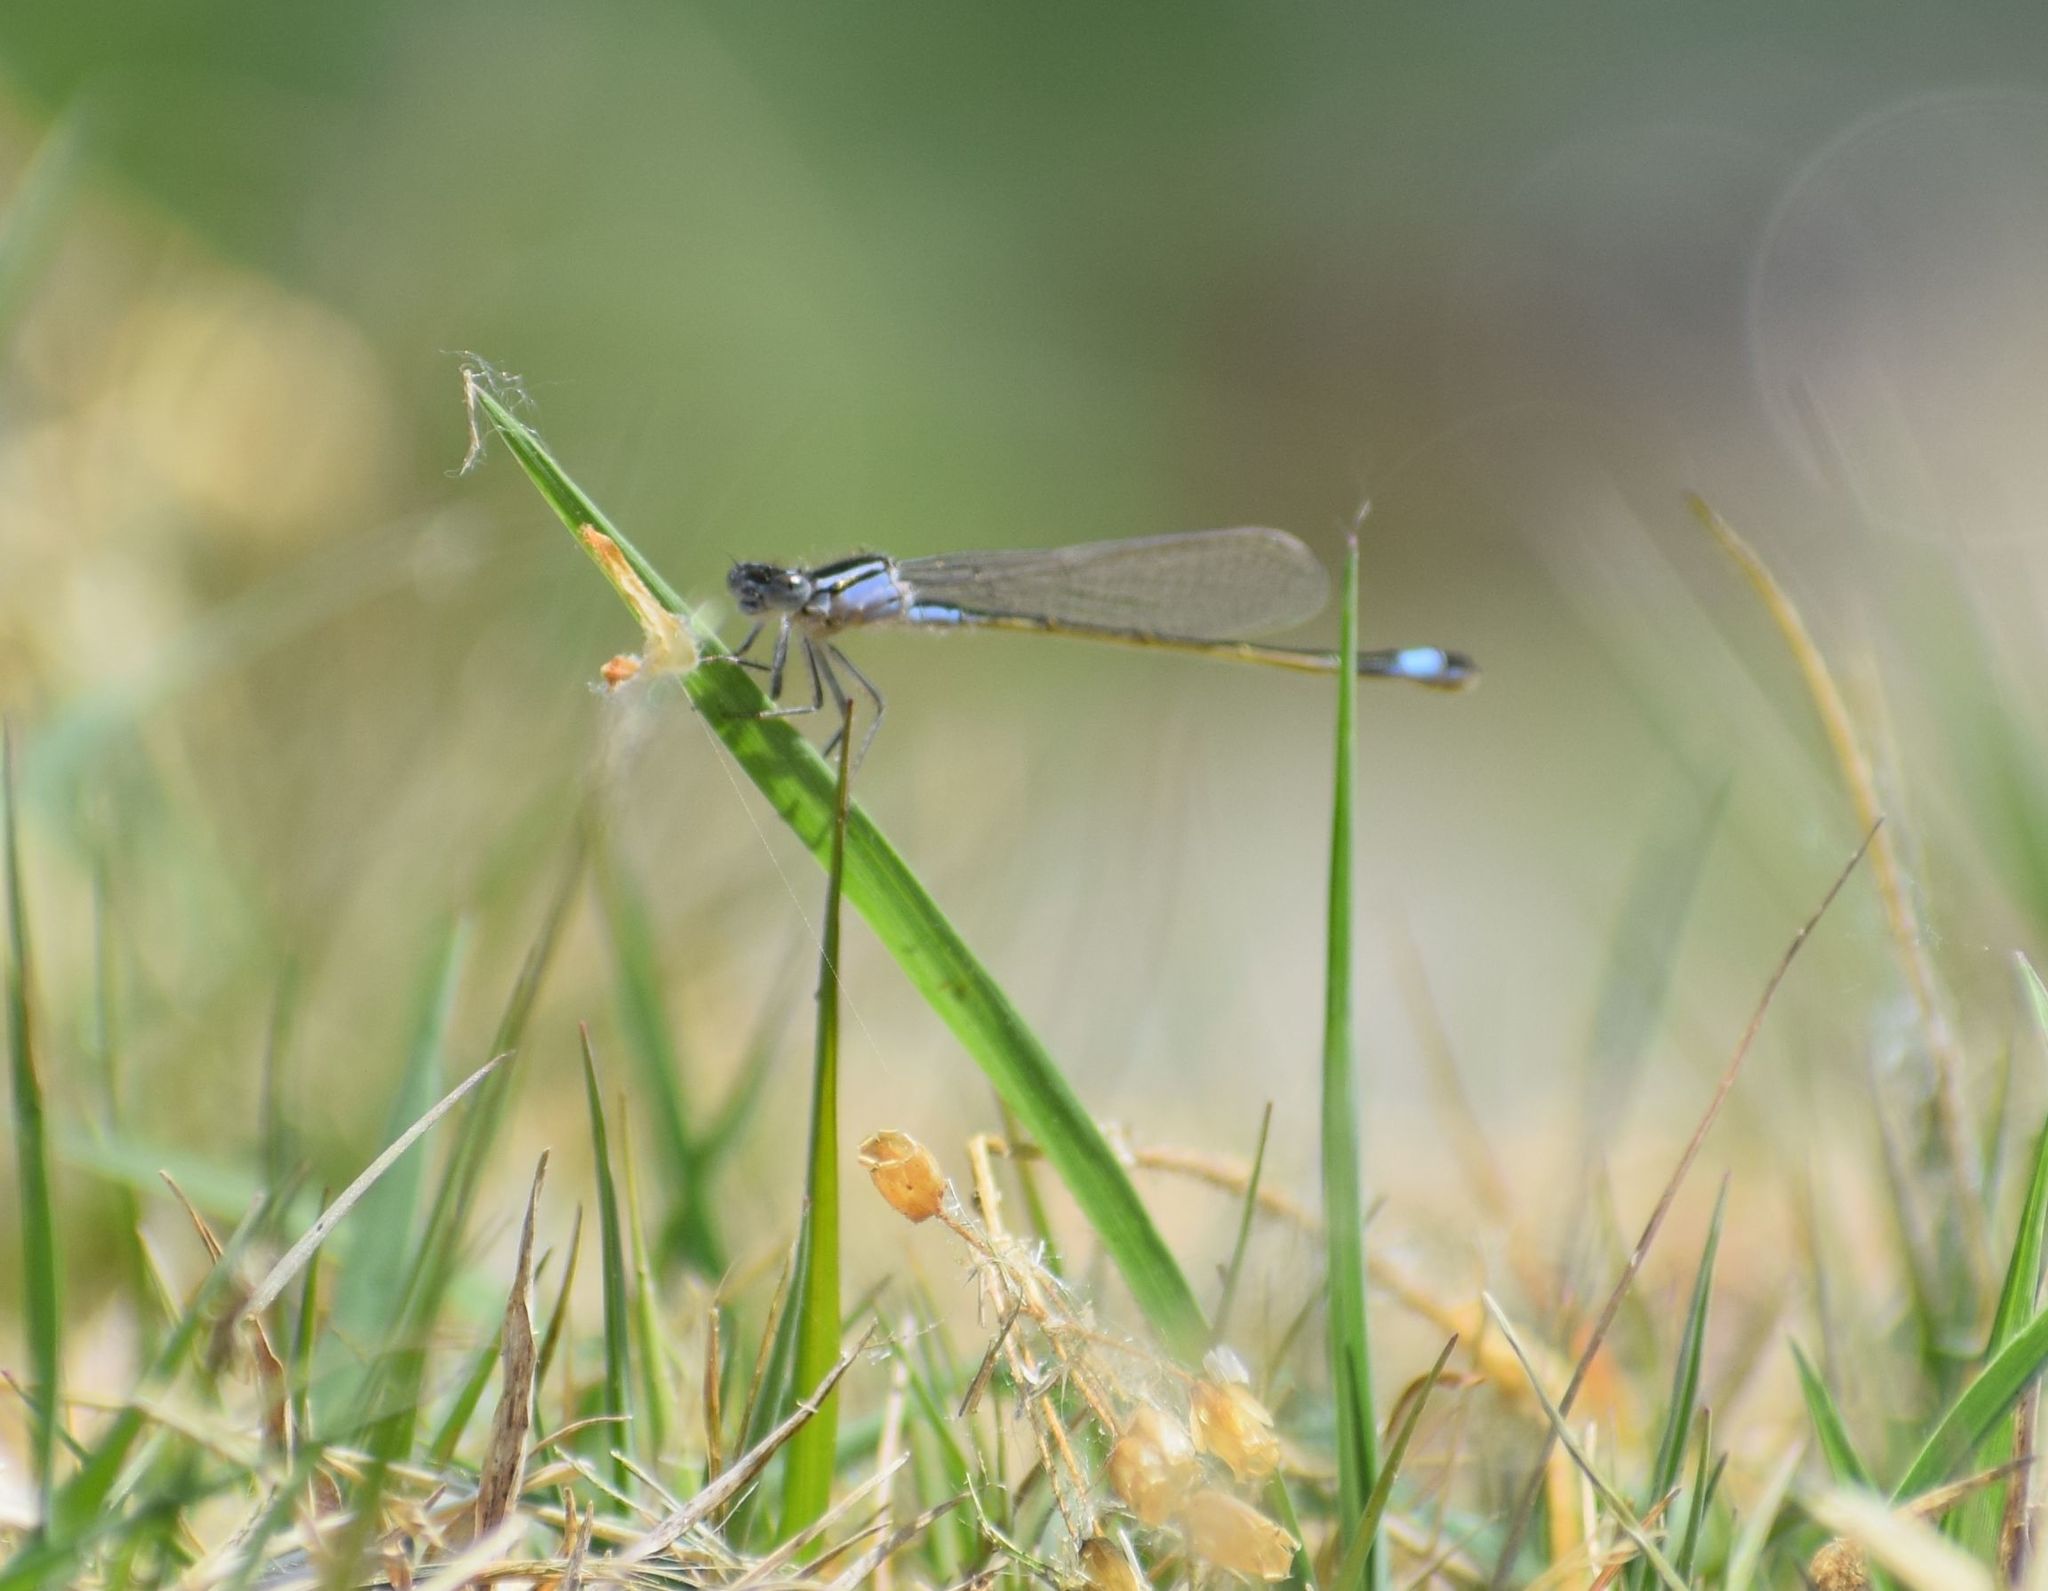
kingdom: Animalia
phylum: Arthropoda
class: Insecta
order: Odonata
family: Coenagrionidae
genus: Ischnura
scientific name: Ischnura elegans
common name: Blue-tailed damselfly
